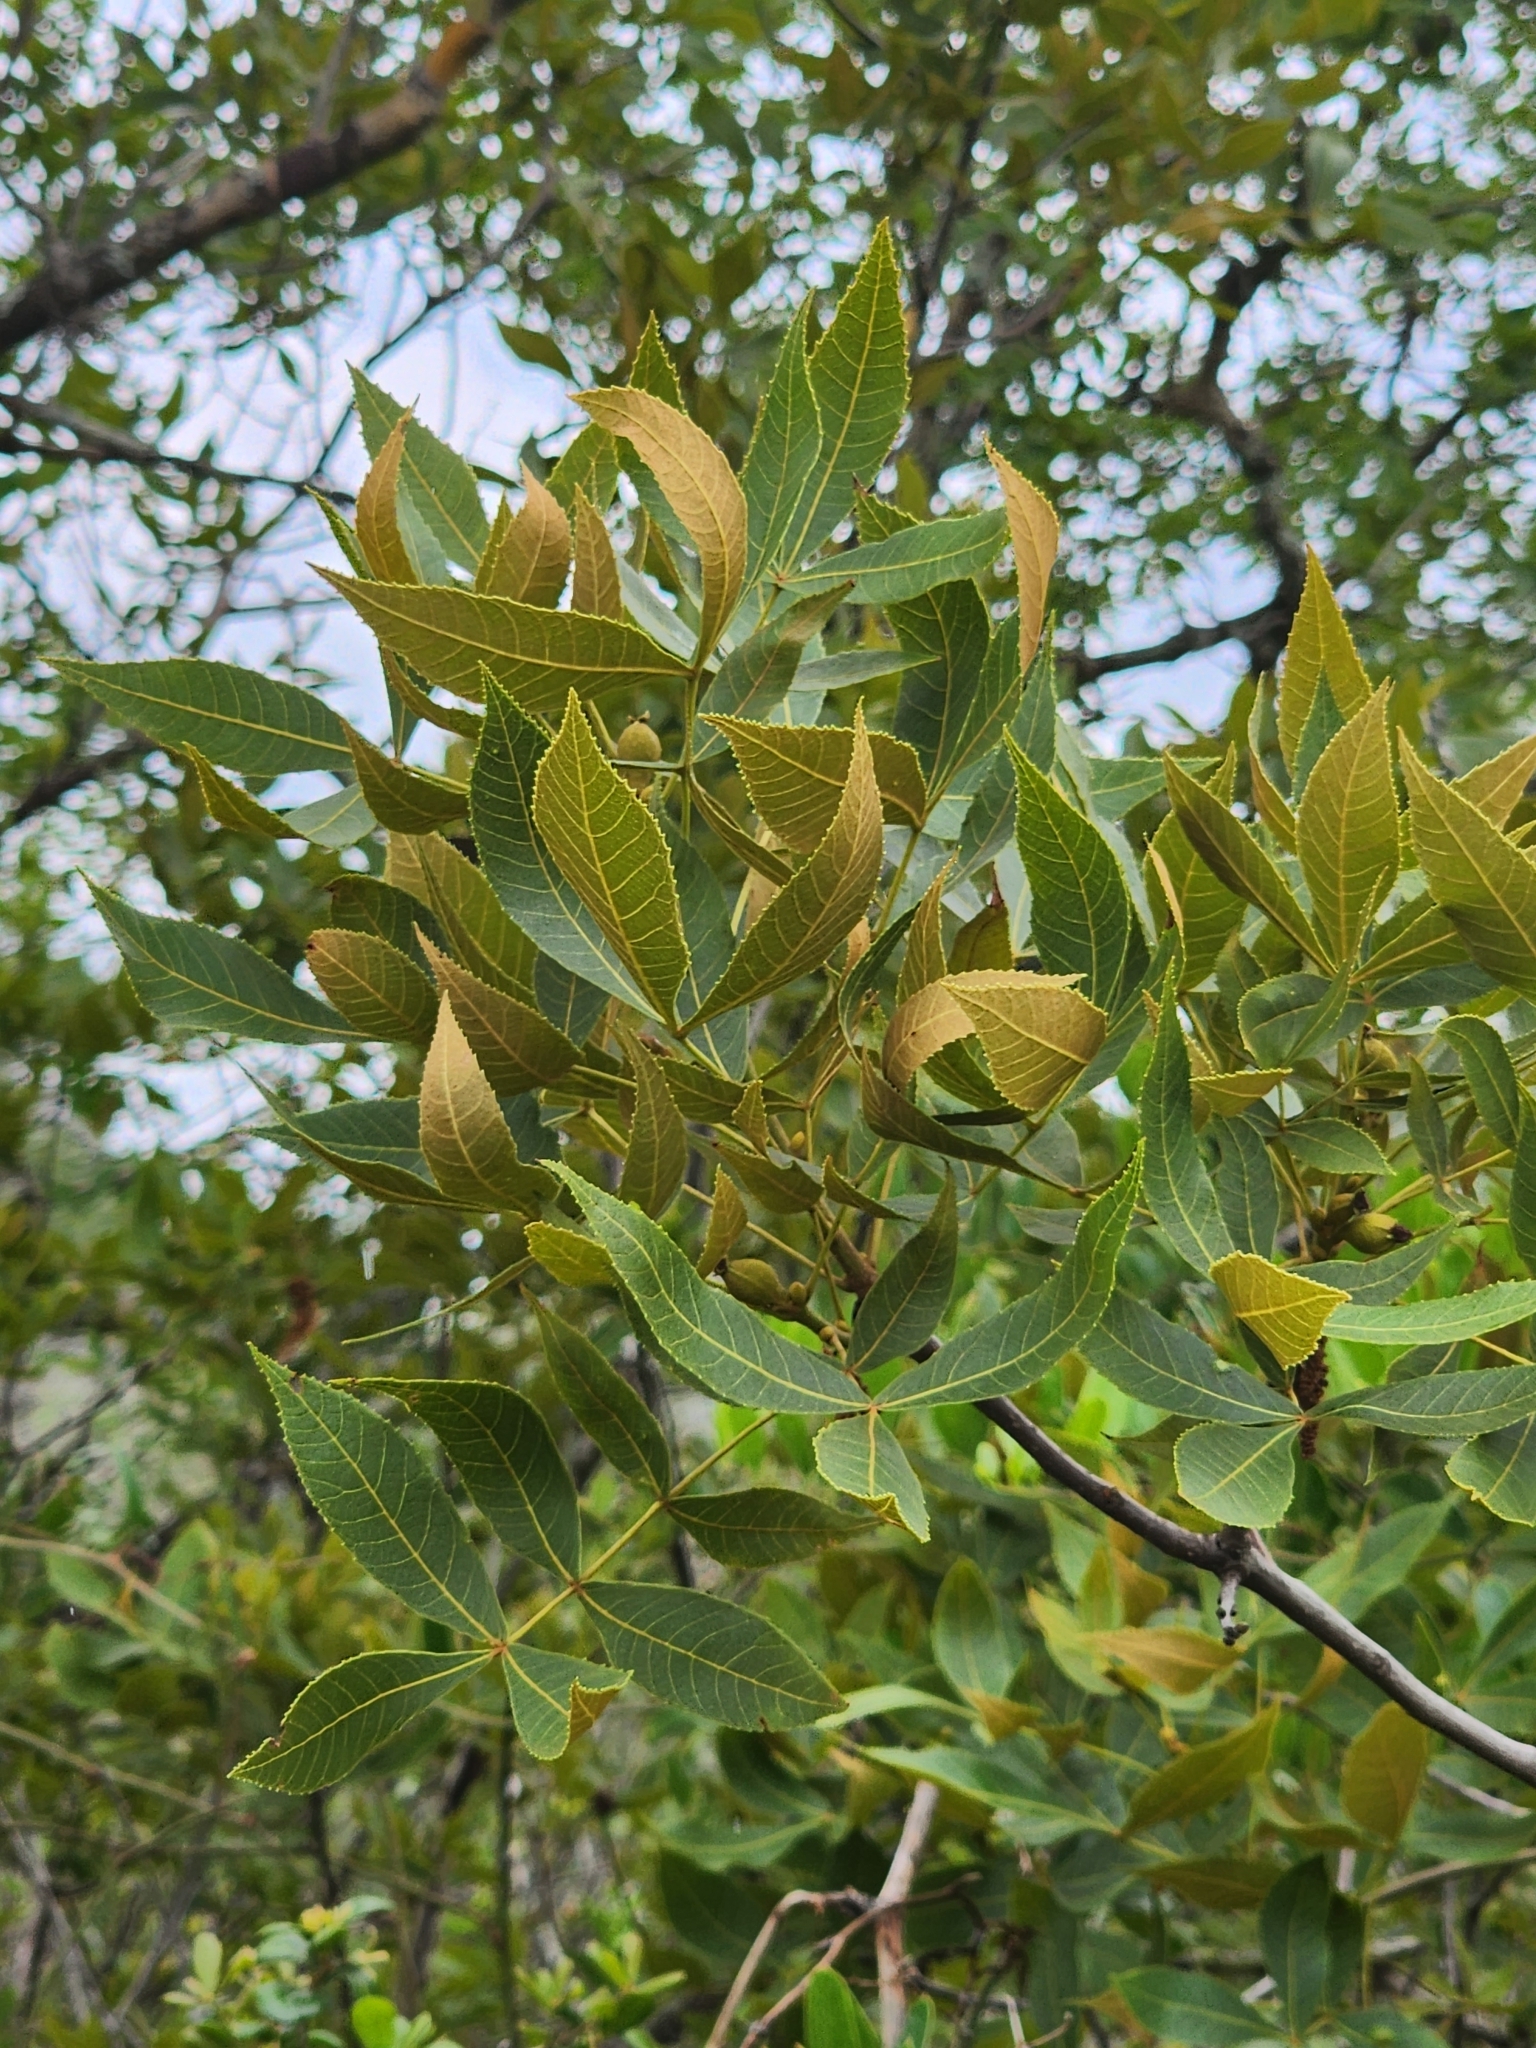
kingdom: Plantae
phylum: Tracheophyta
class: Magnoliopsida
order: Fagales
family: Juglandaceae
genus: Carya
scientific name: Carya floridana
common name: Scrub hickory
